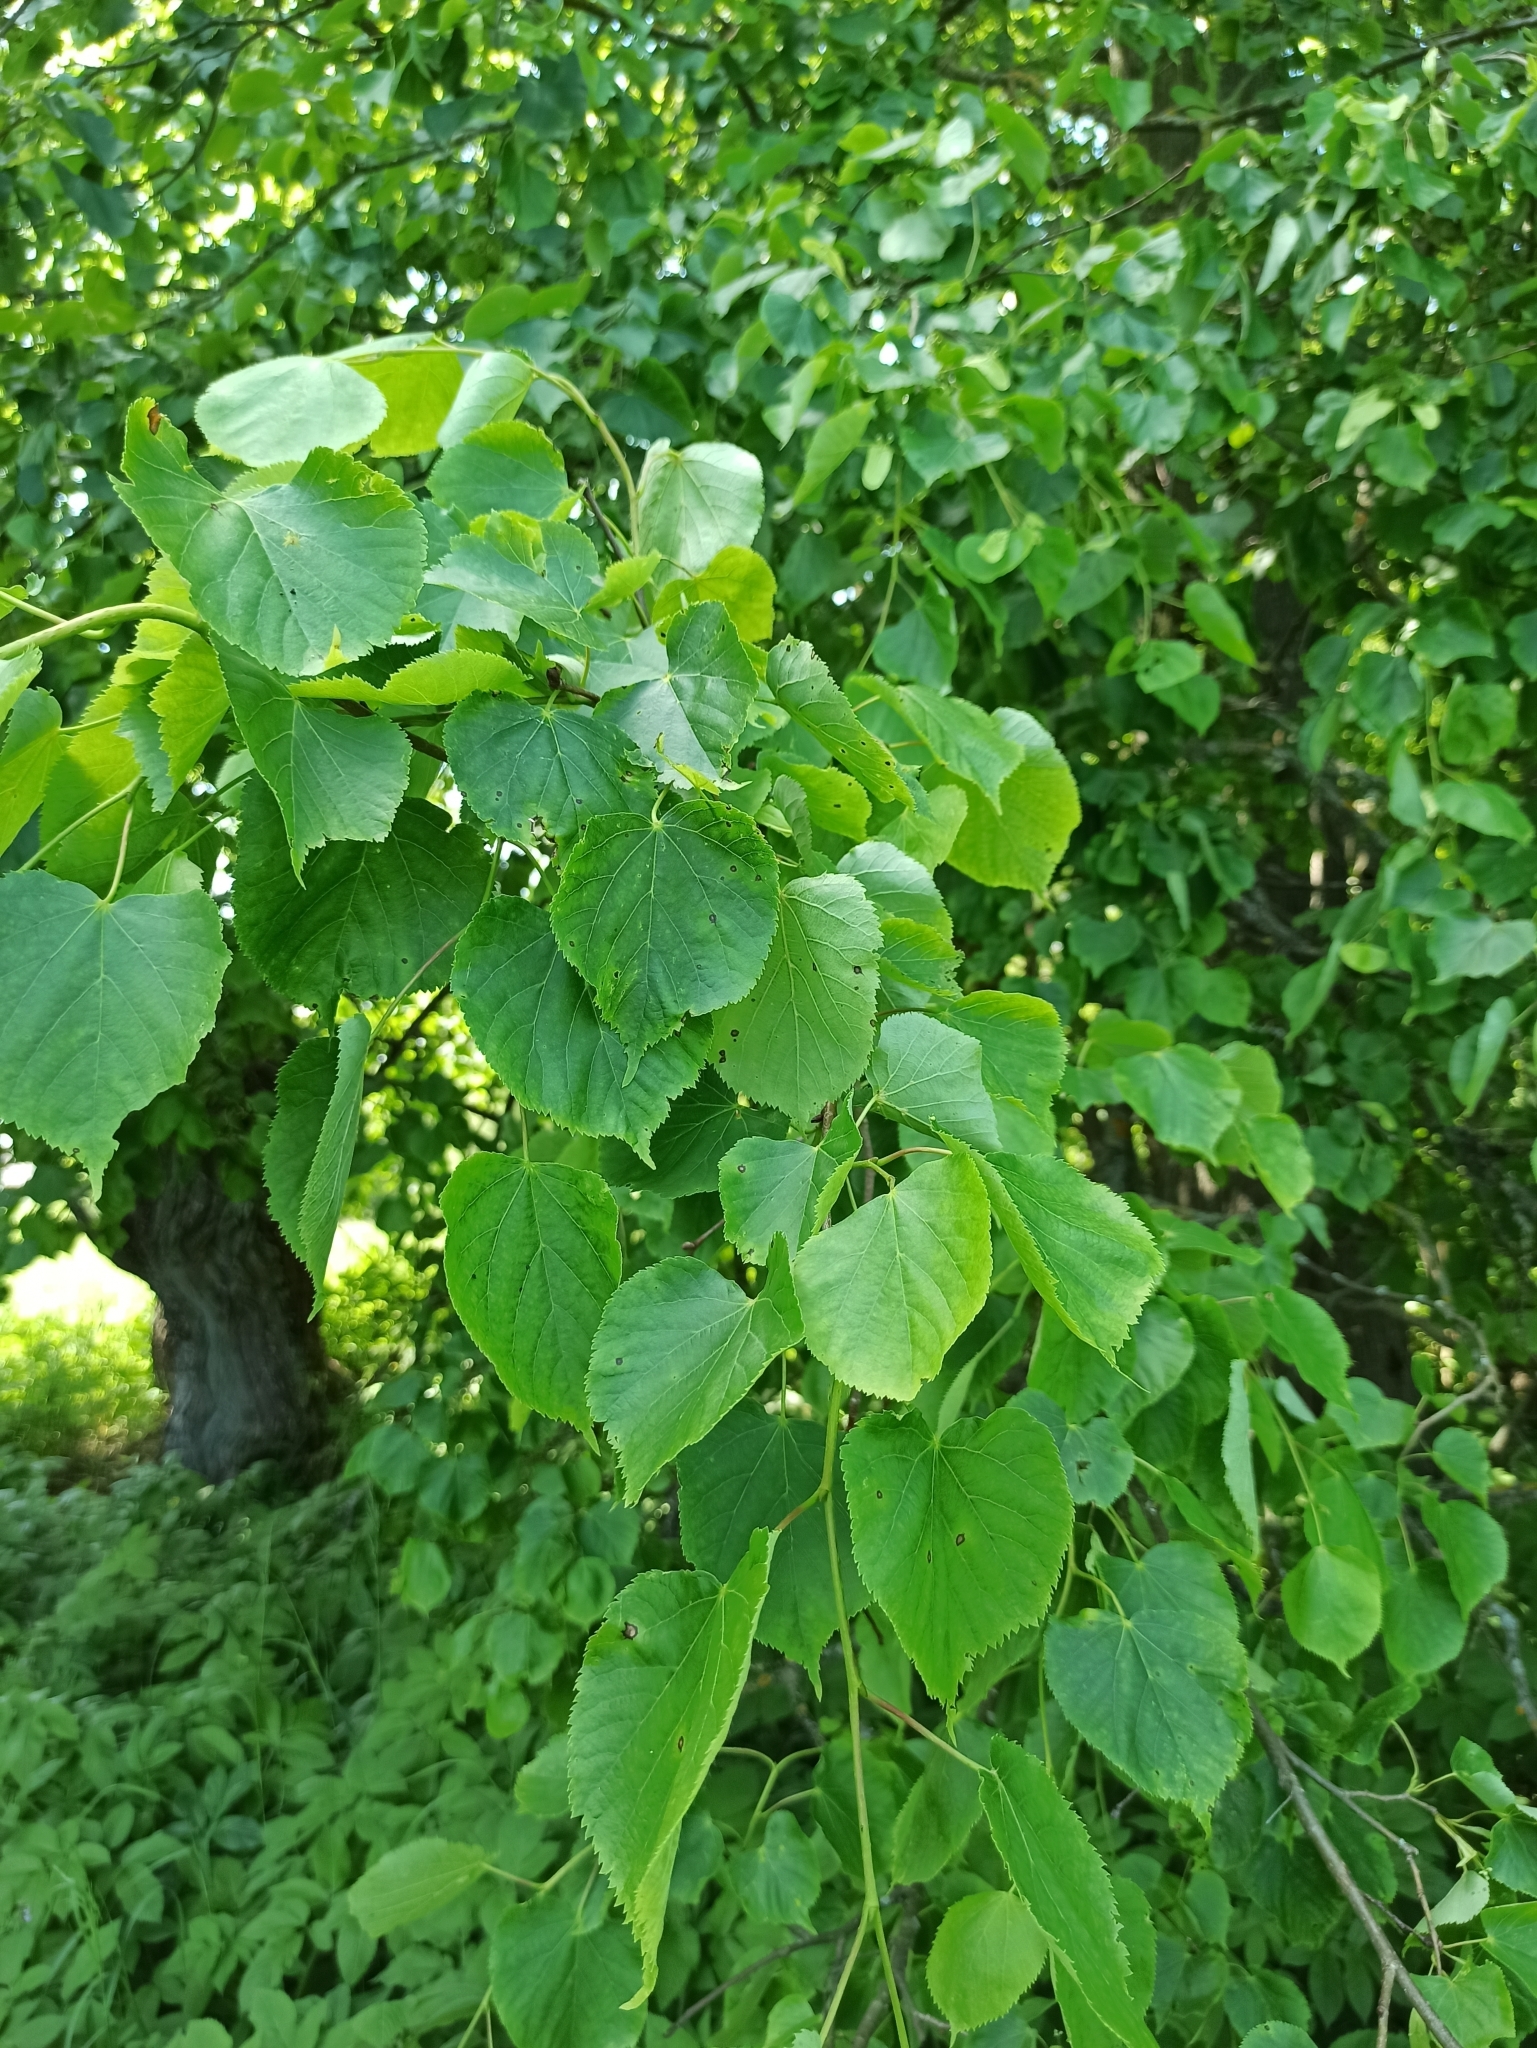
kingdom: Plantae
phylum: Tracheophyta
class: Magnoliopsida
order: Malvales
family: Malvaceae
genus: Tilia
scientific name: Tilia cordata
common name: Small-leaved lime
